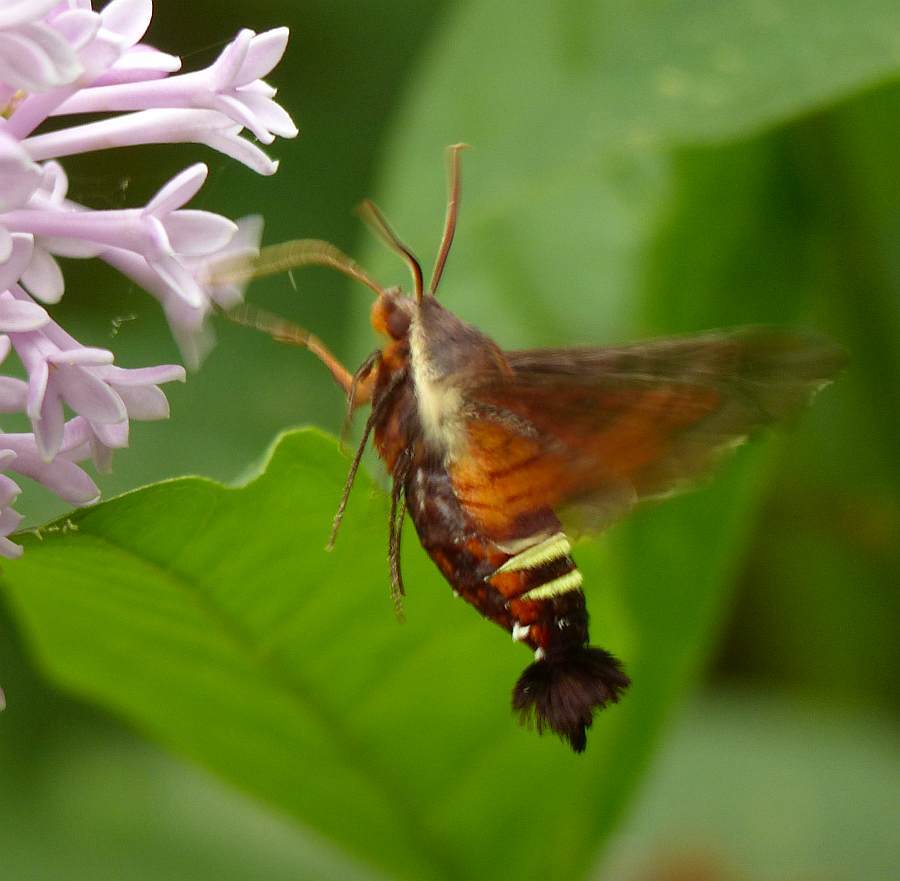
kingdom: Animalia
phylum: Arthropoda
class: Insecta
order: Lepidoptera
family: Sphingidae
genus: Amphion
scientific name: Amphion floridensis
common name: Nessus sphinx
